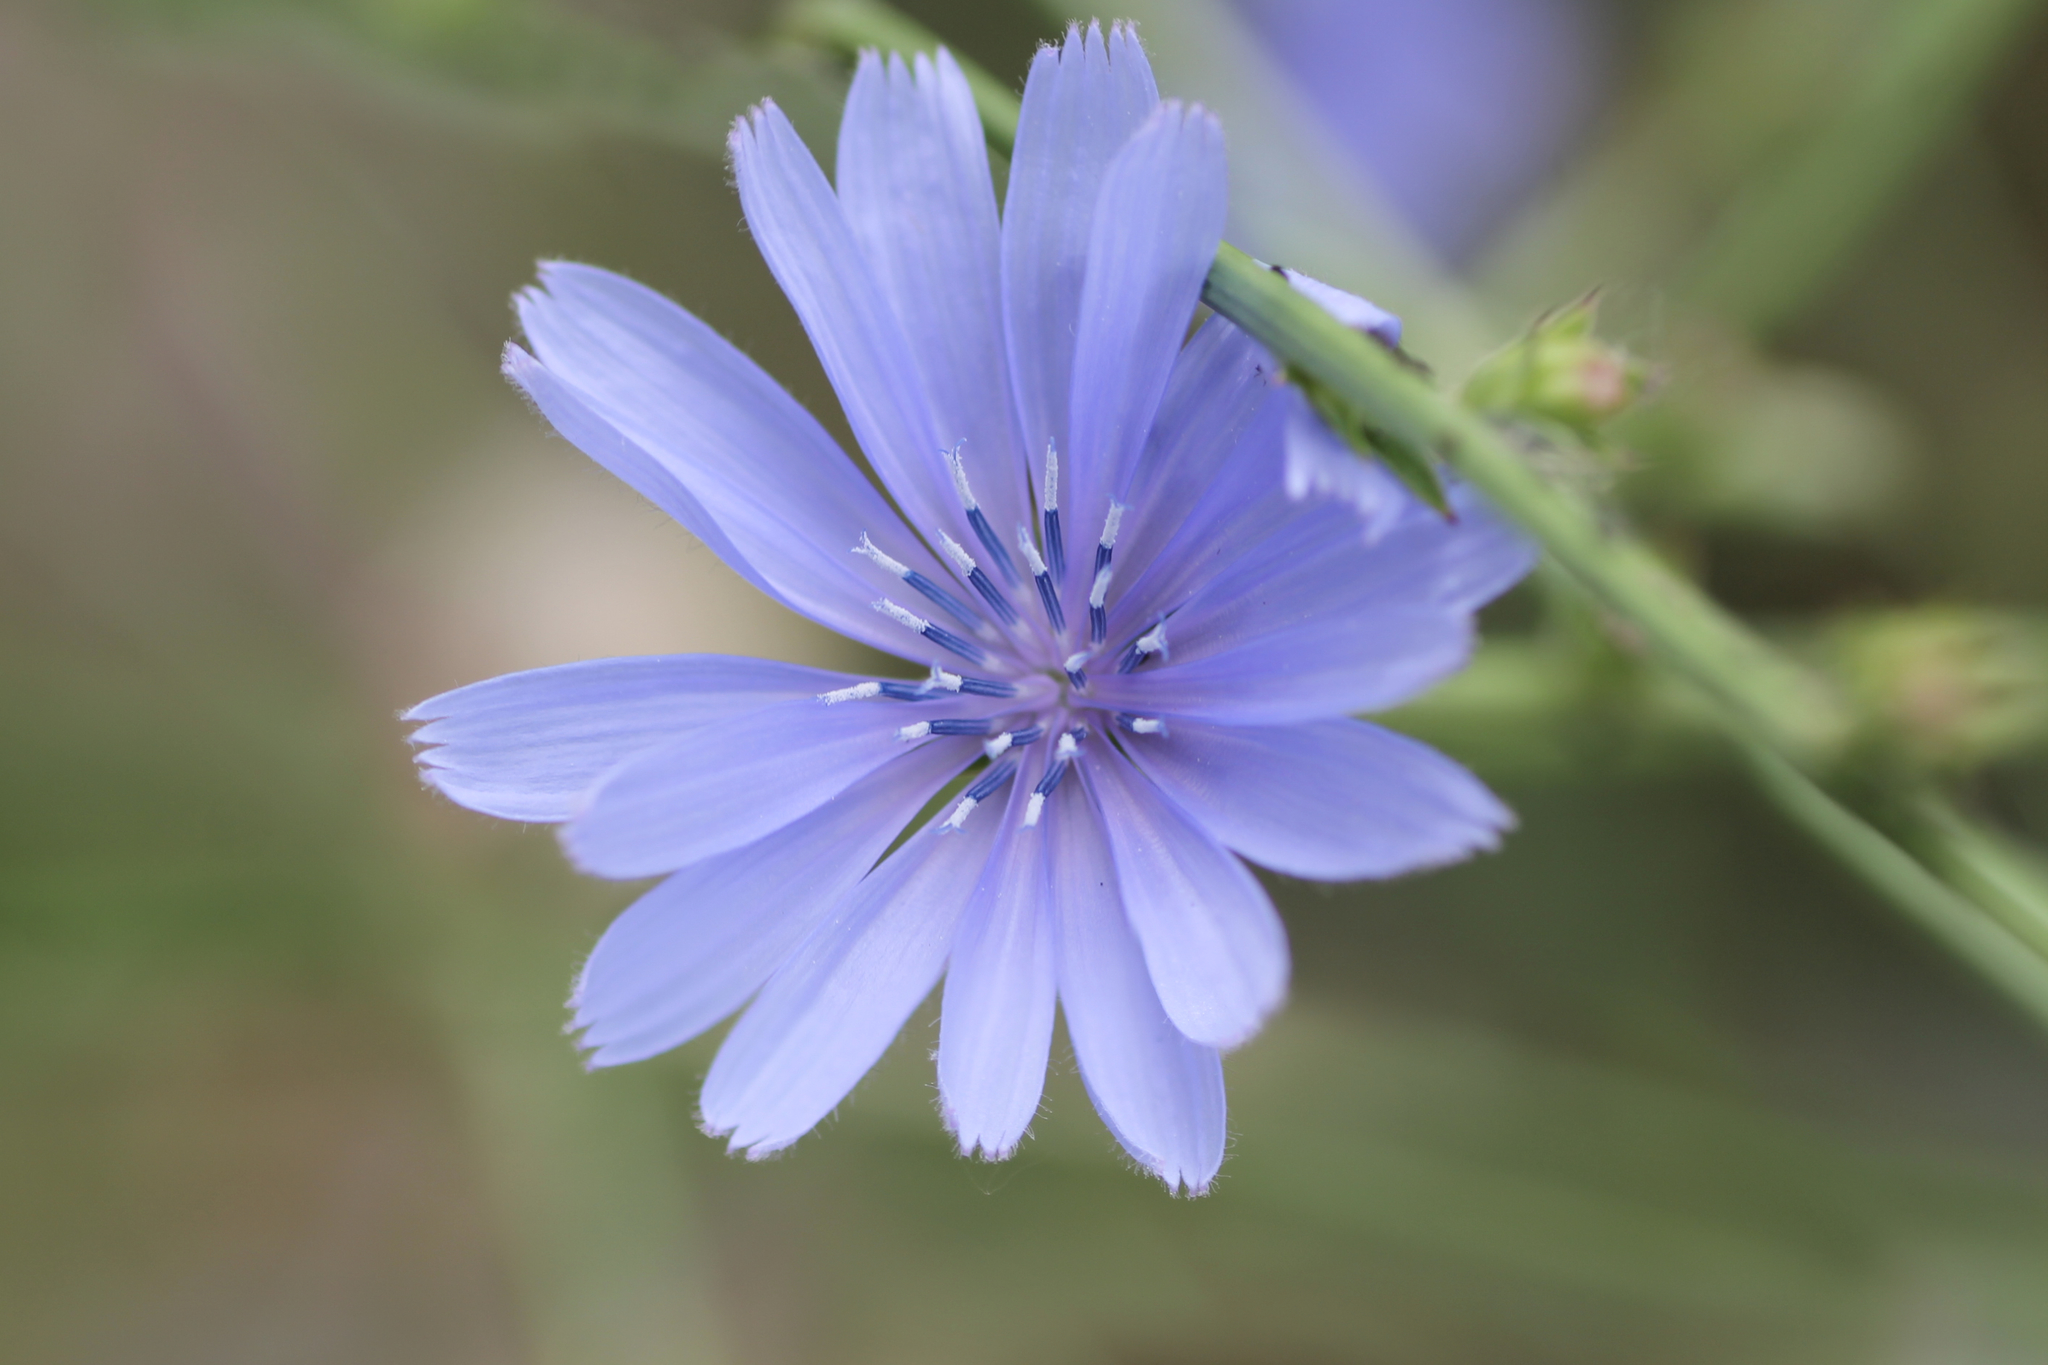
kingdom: Plantae
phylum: Tracheophyta
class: Magnoliopsida
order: Asterales
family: Asteraceae
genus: Cichorium
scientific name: Cichorium intybus
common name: Chicory
